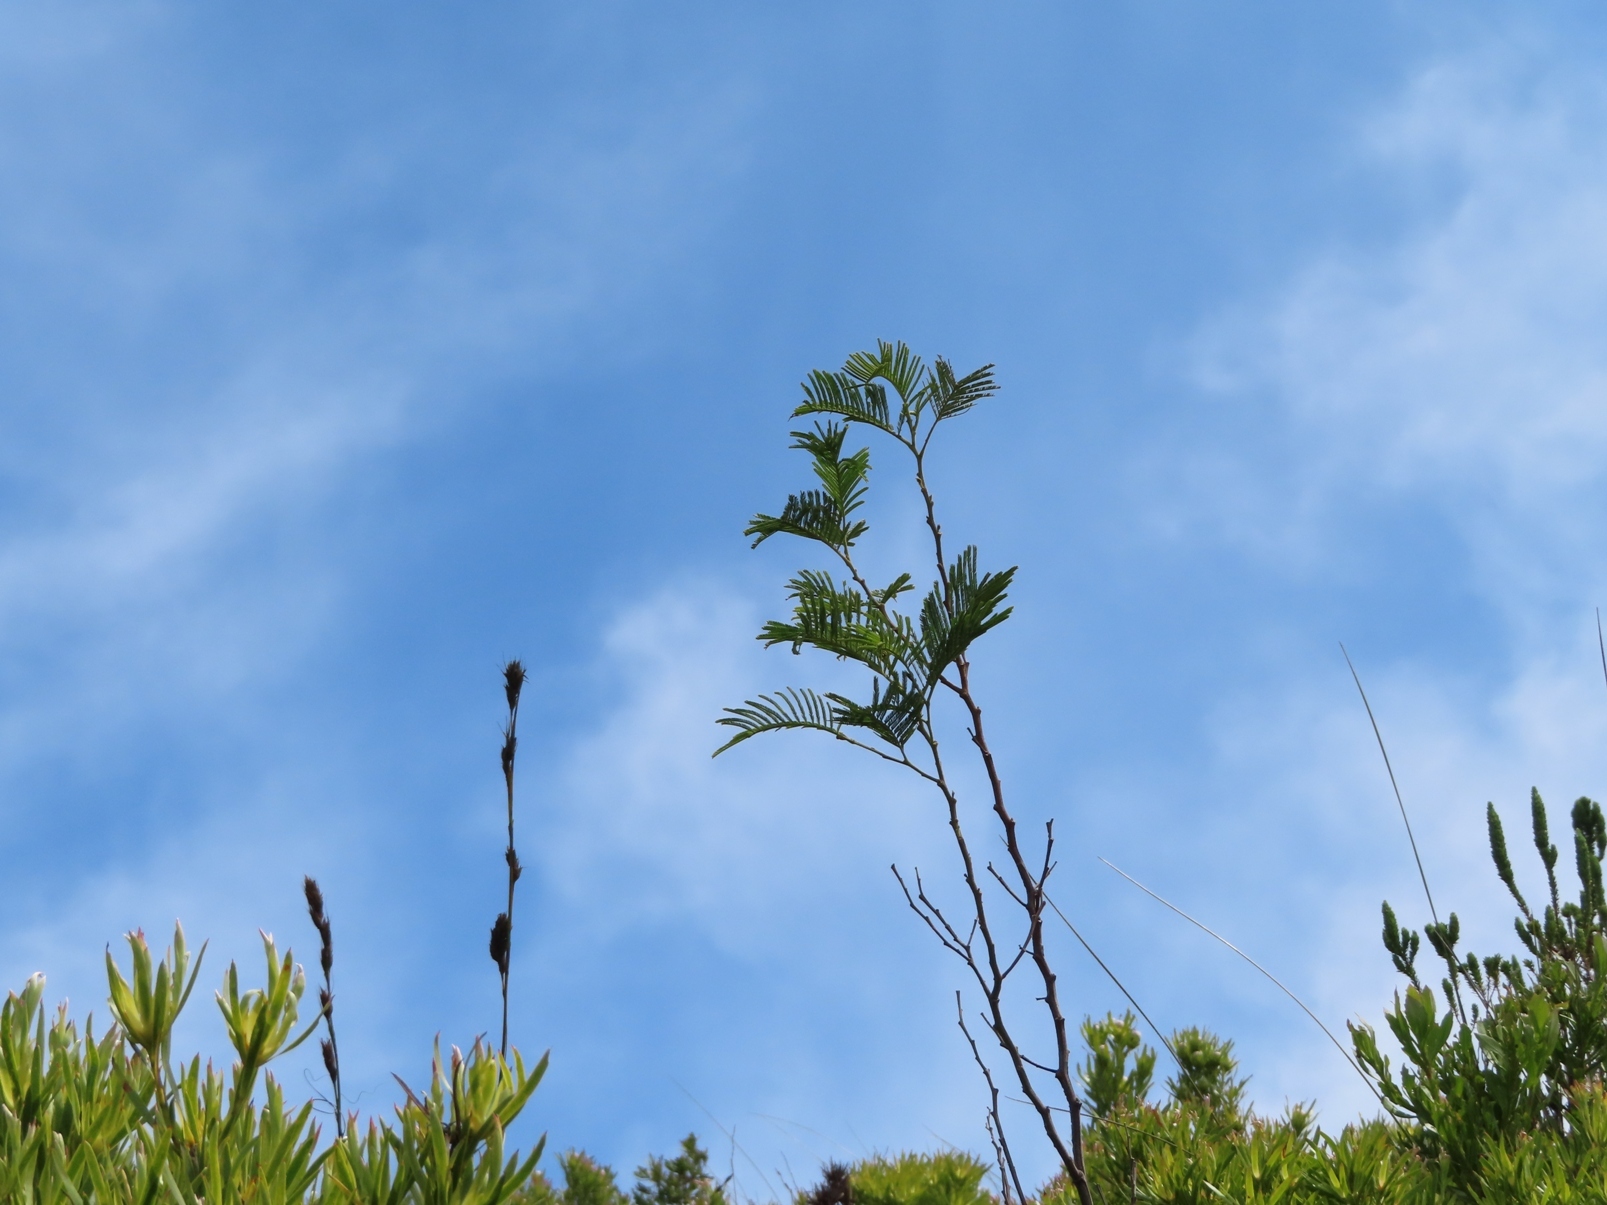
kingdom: Plantae
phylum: Tracheophyta
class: Magnoliopsida
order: Fabales
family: Fabaceae
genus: Acacia
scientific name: Acacia mearnsii
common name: Black wattle
